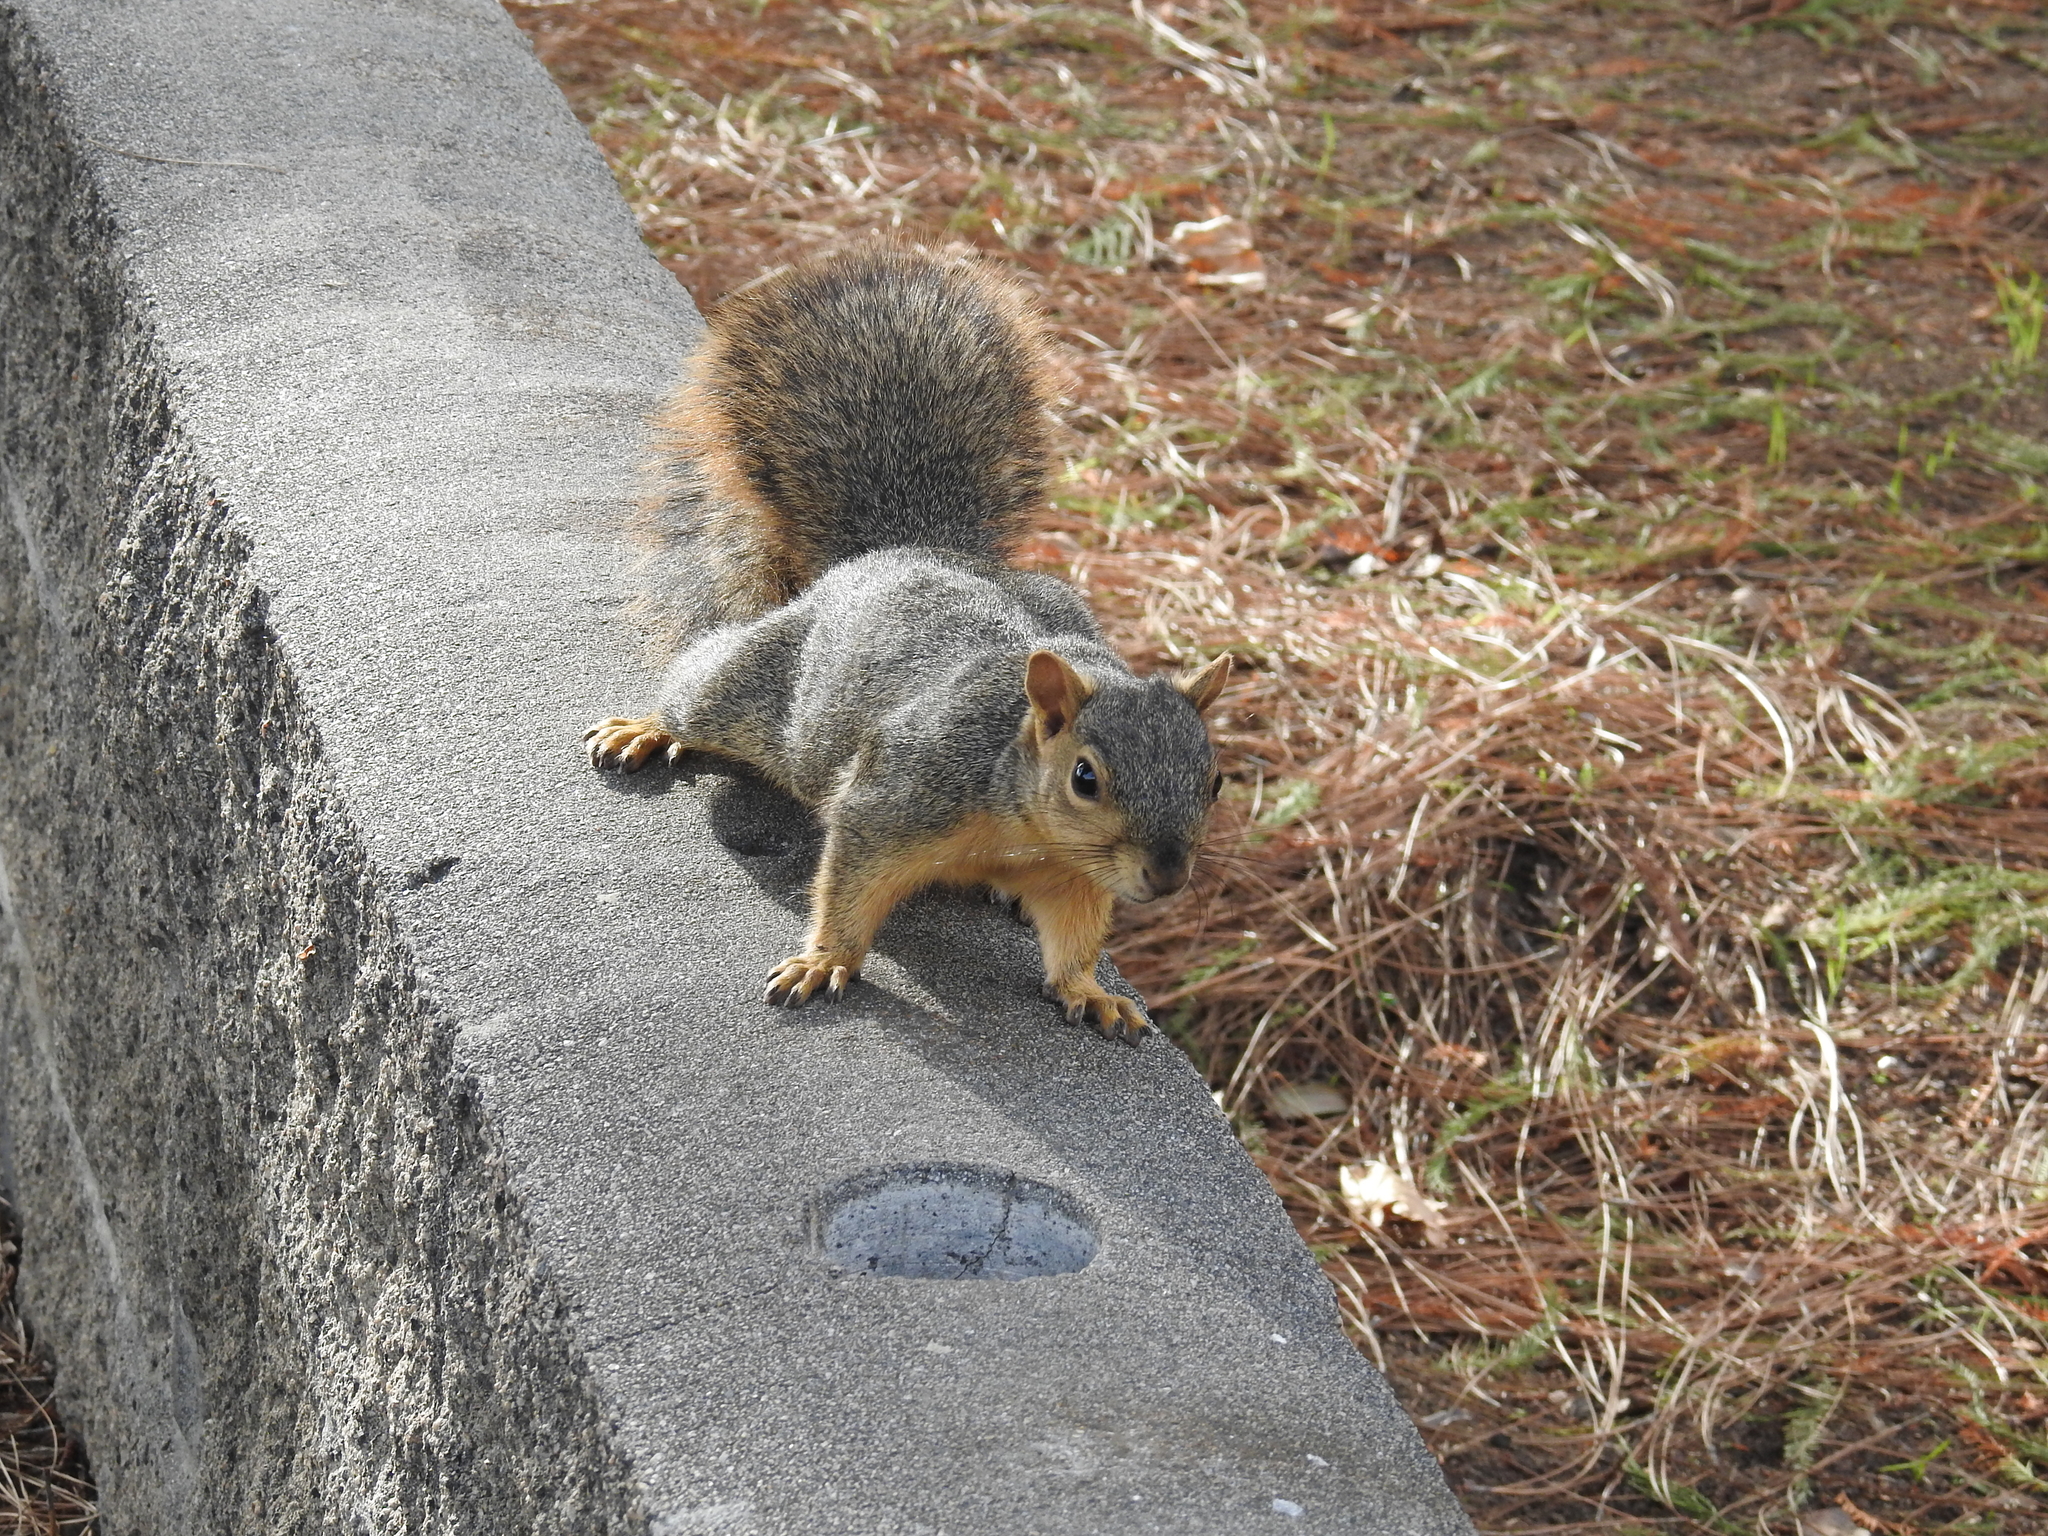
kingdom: Animalia
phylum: Chordata
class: Mammalia
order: Rodentia
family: Sciuridae
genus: Sciurus
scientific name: Sciurus niger
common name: Fox squirrel
